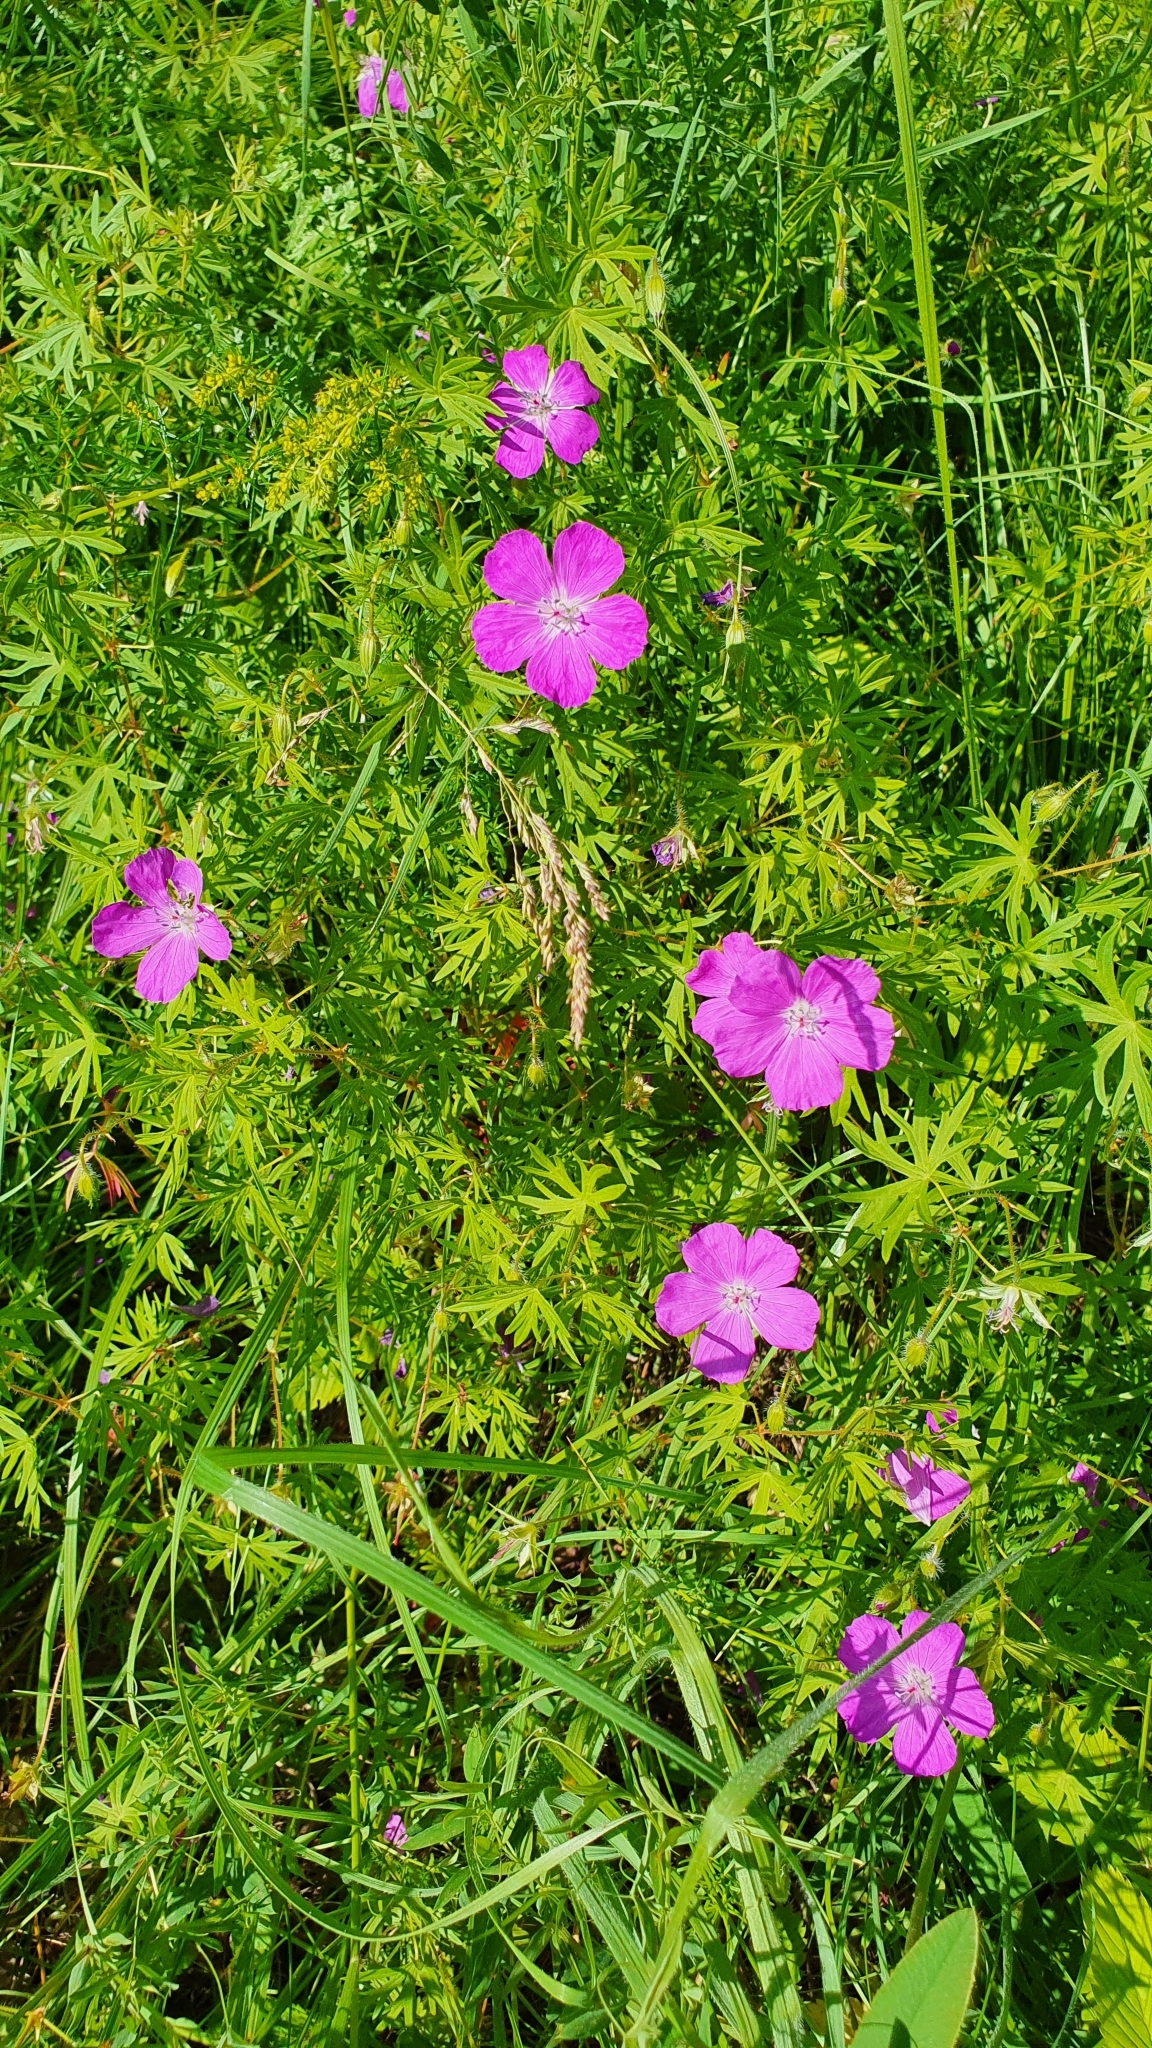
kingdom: Plantae
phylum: Tracheophyta
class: Magnoliopsida
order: Geraniales
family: Geraniaceae
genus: Geranium
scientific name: Geranium sanguineum
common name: Bloody crane's-bill
